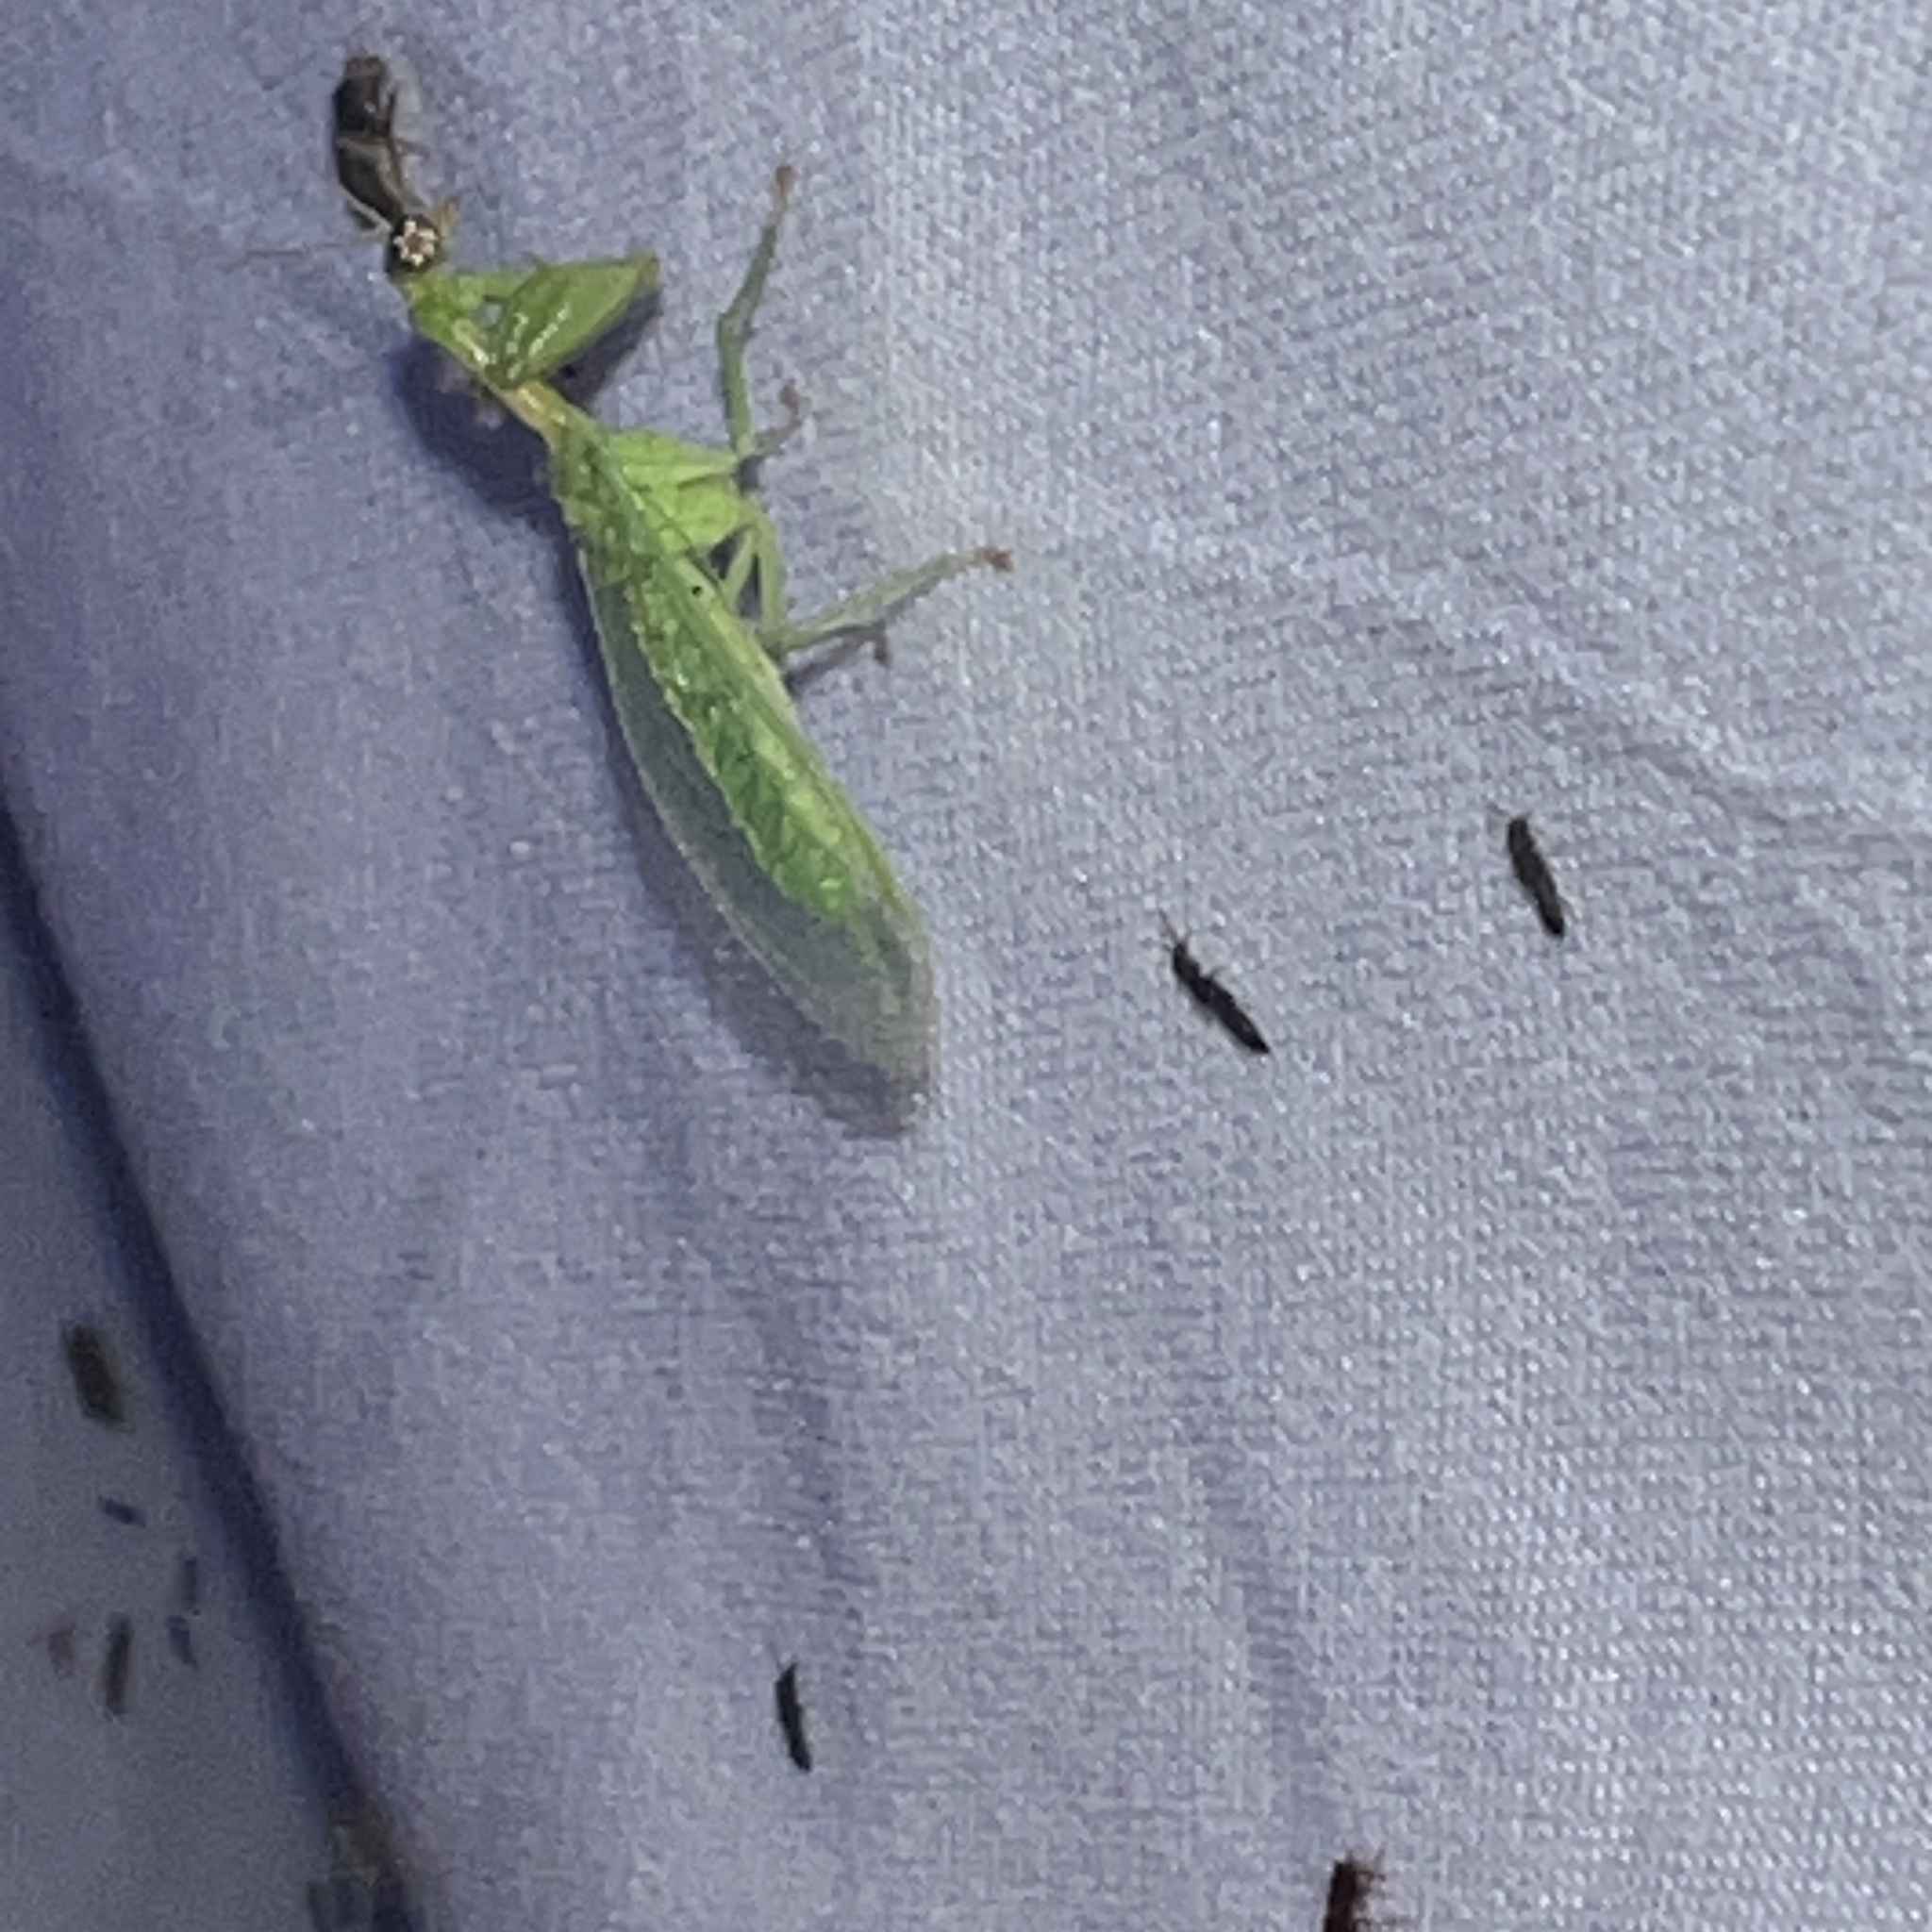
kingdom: Animalia
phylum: Arthropoda
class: Insecta
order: Neuroptera
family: Mantispidae
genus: Zeugomantispa
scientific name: Zeugomantispa minuta
